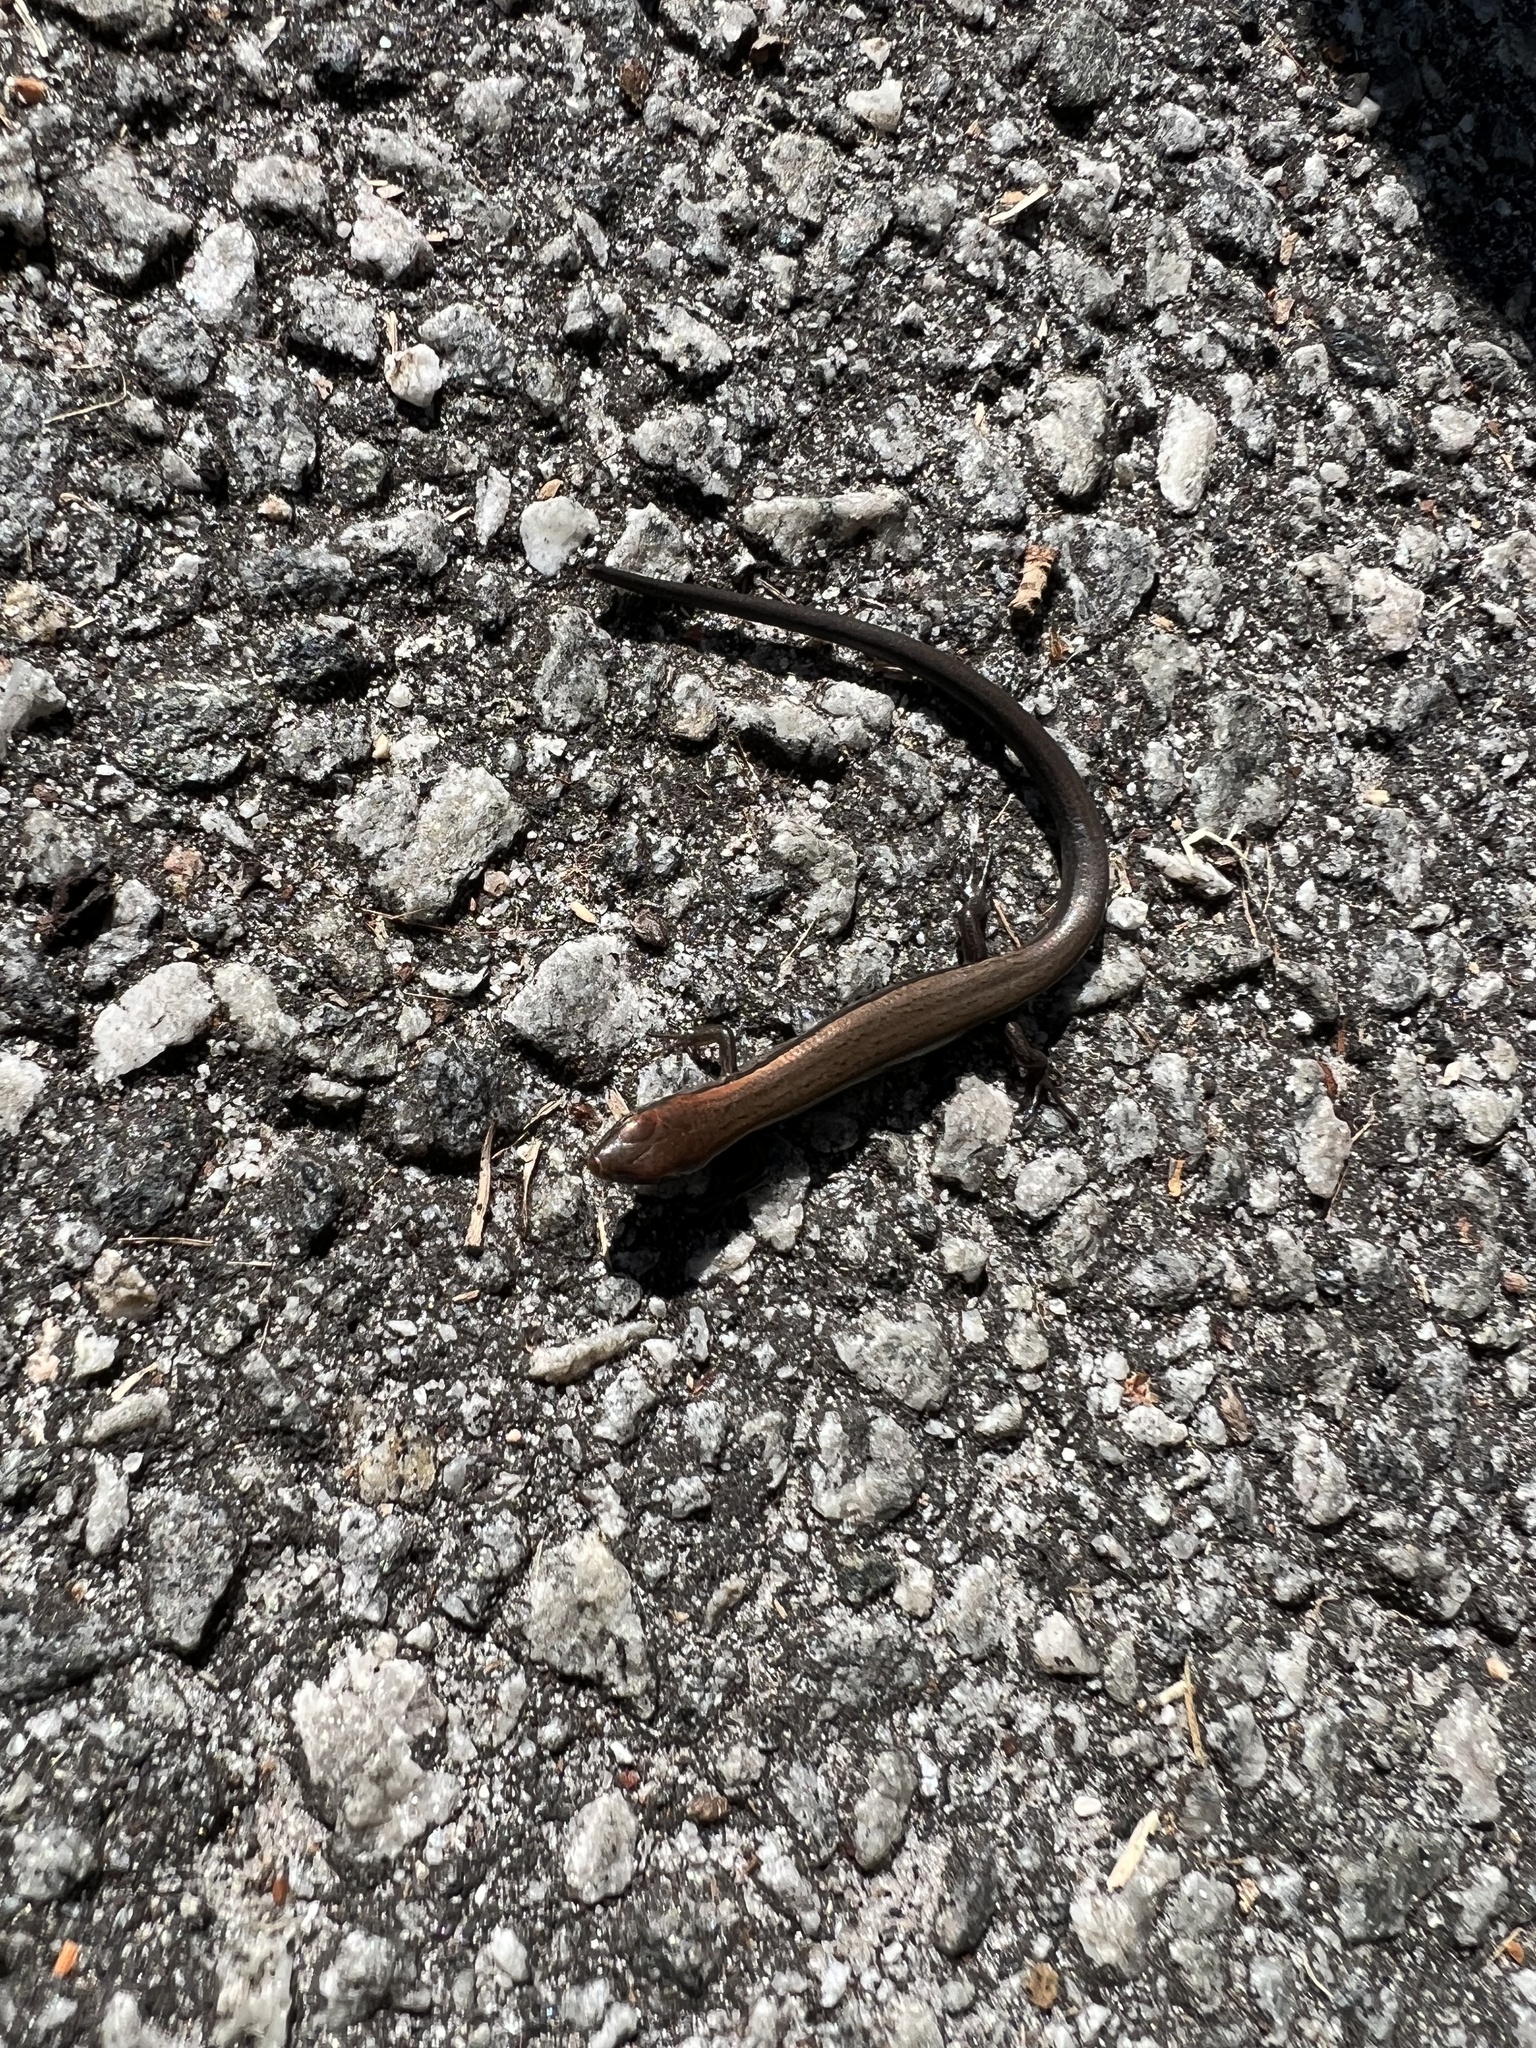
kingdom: Animalia
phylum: Chordata
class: Squamata
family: Scincidae
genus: Scincella
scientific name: Scincella lateralis
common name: Ground skink
